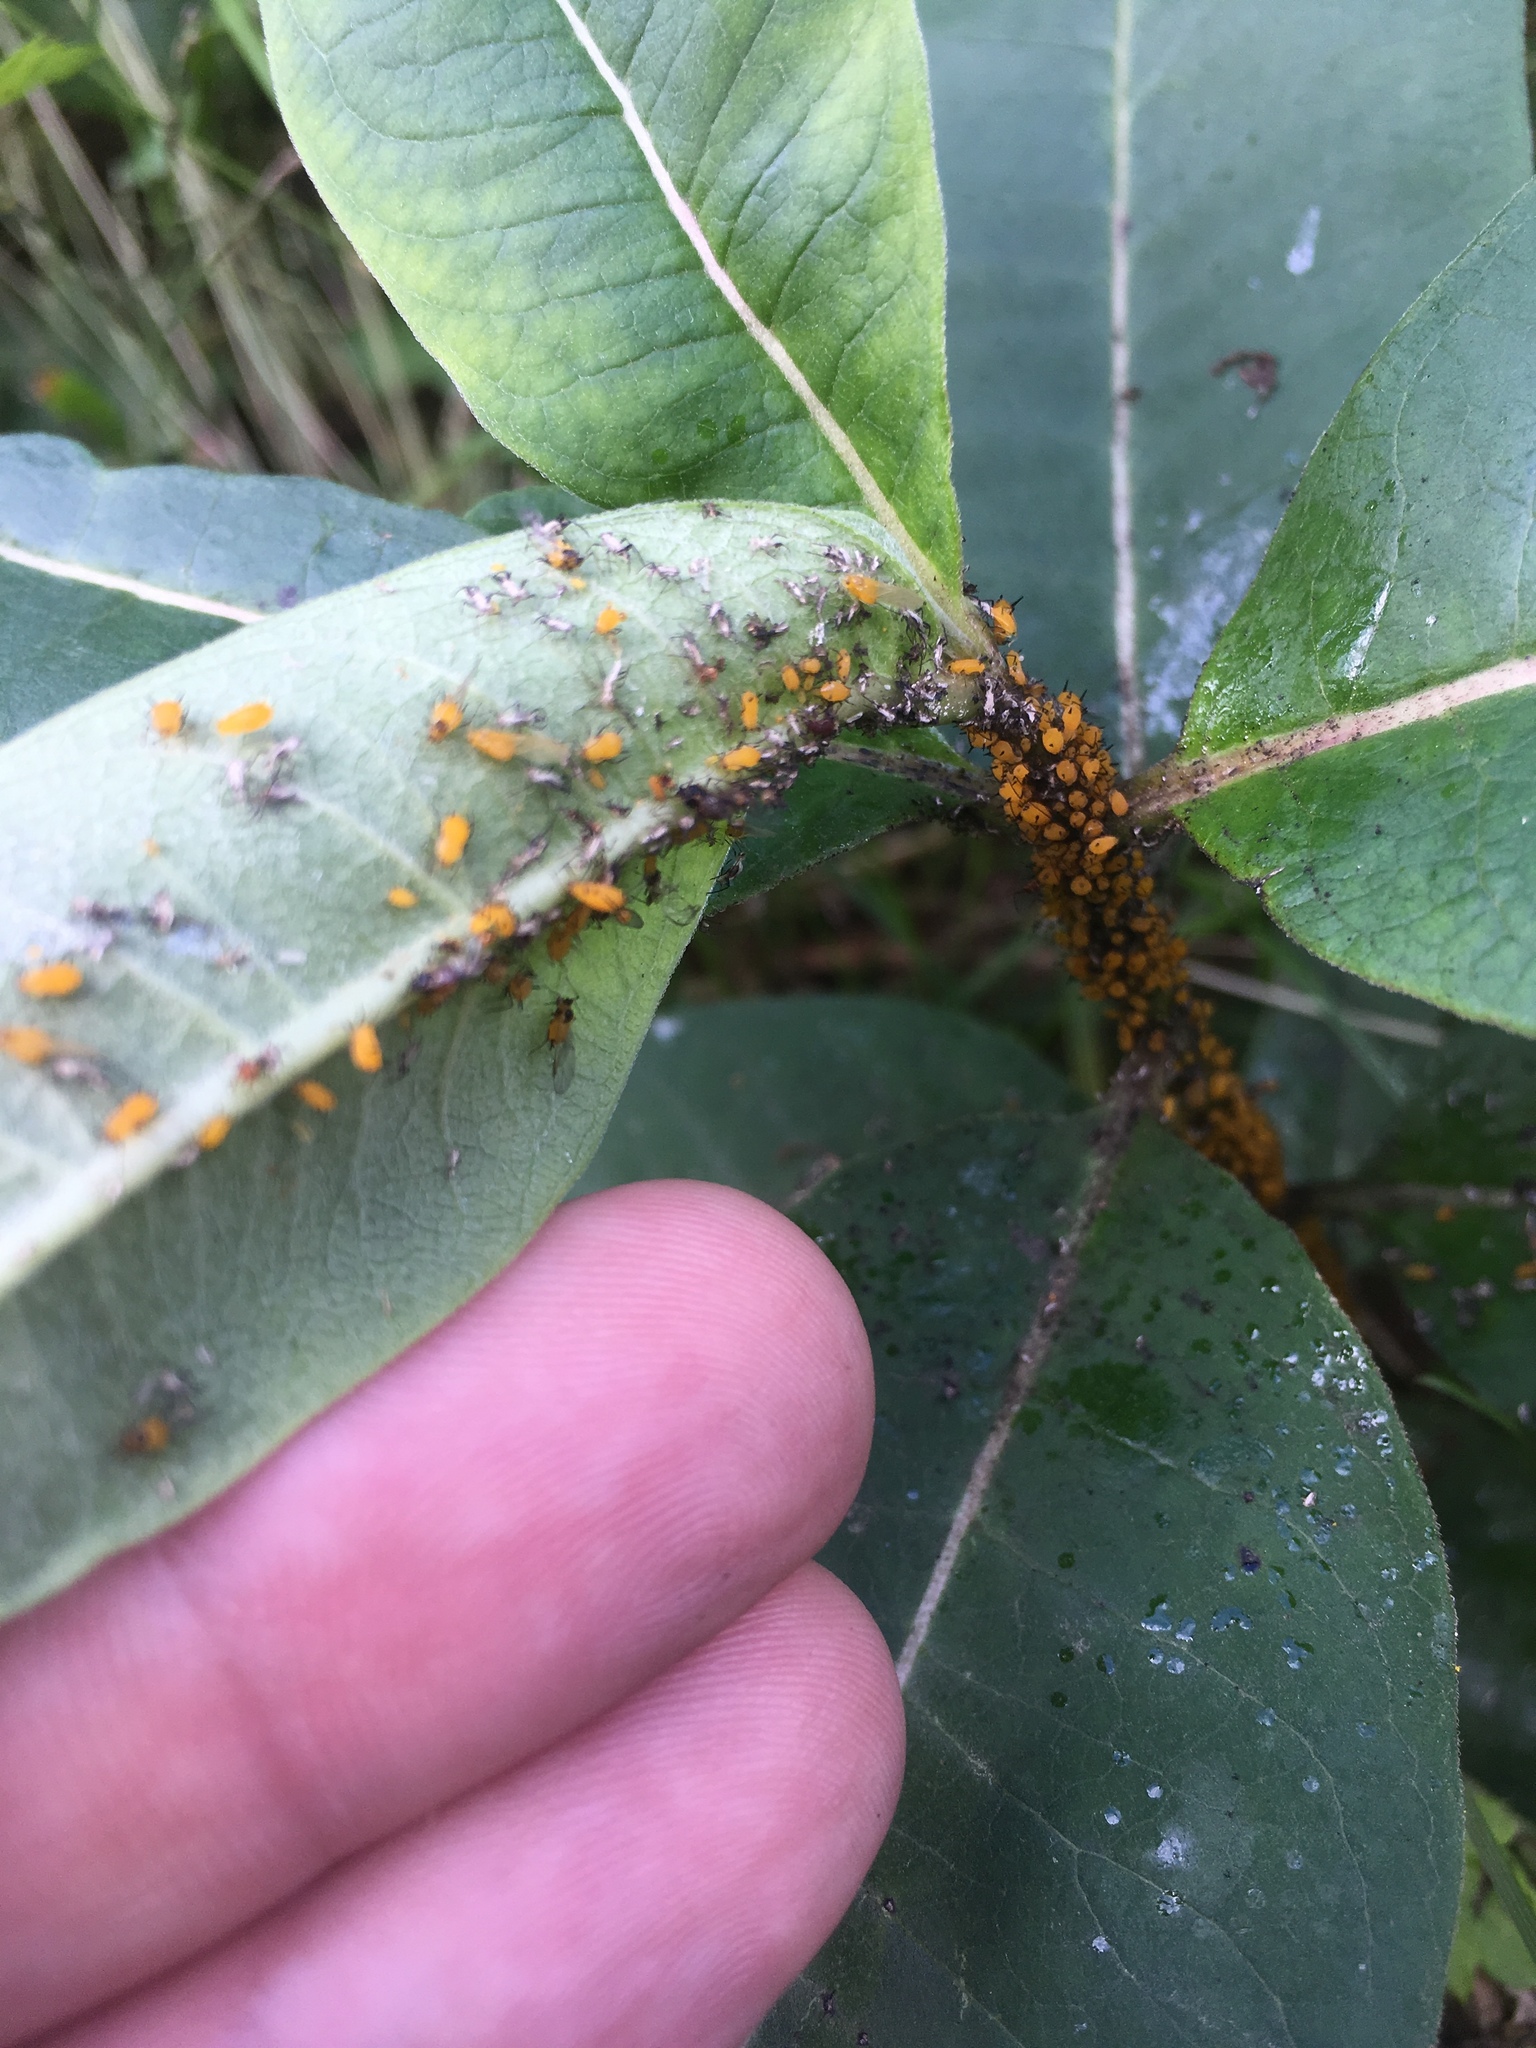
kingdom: Animalia
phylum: Arthropoda
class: Insecta
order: Hemiptera
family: Aphididae
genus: Aphis
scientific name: Aphis nerii
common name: Oleander aphid
